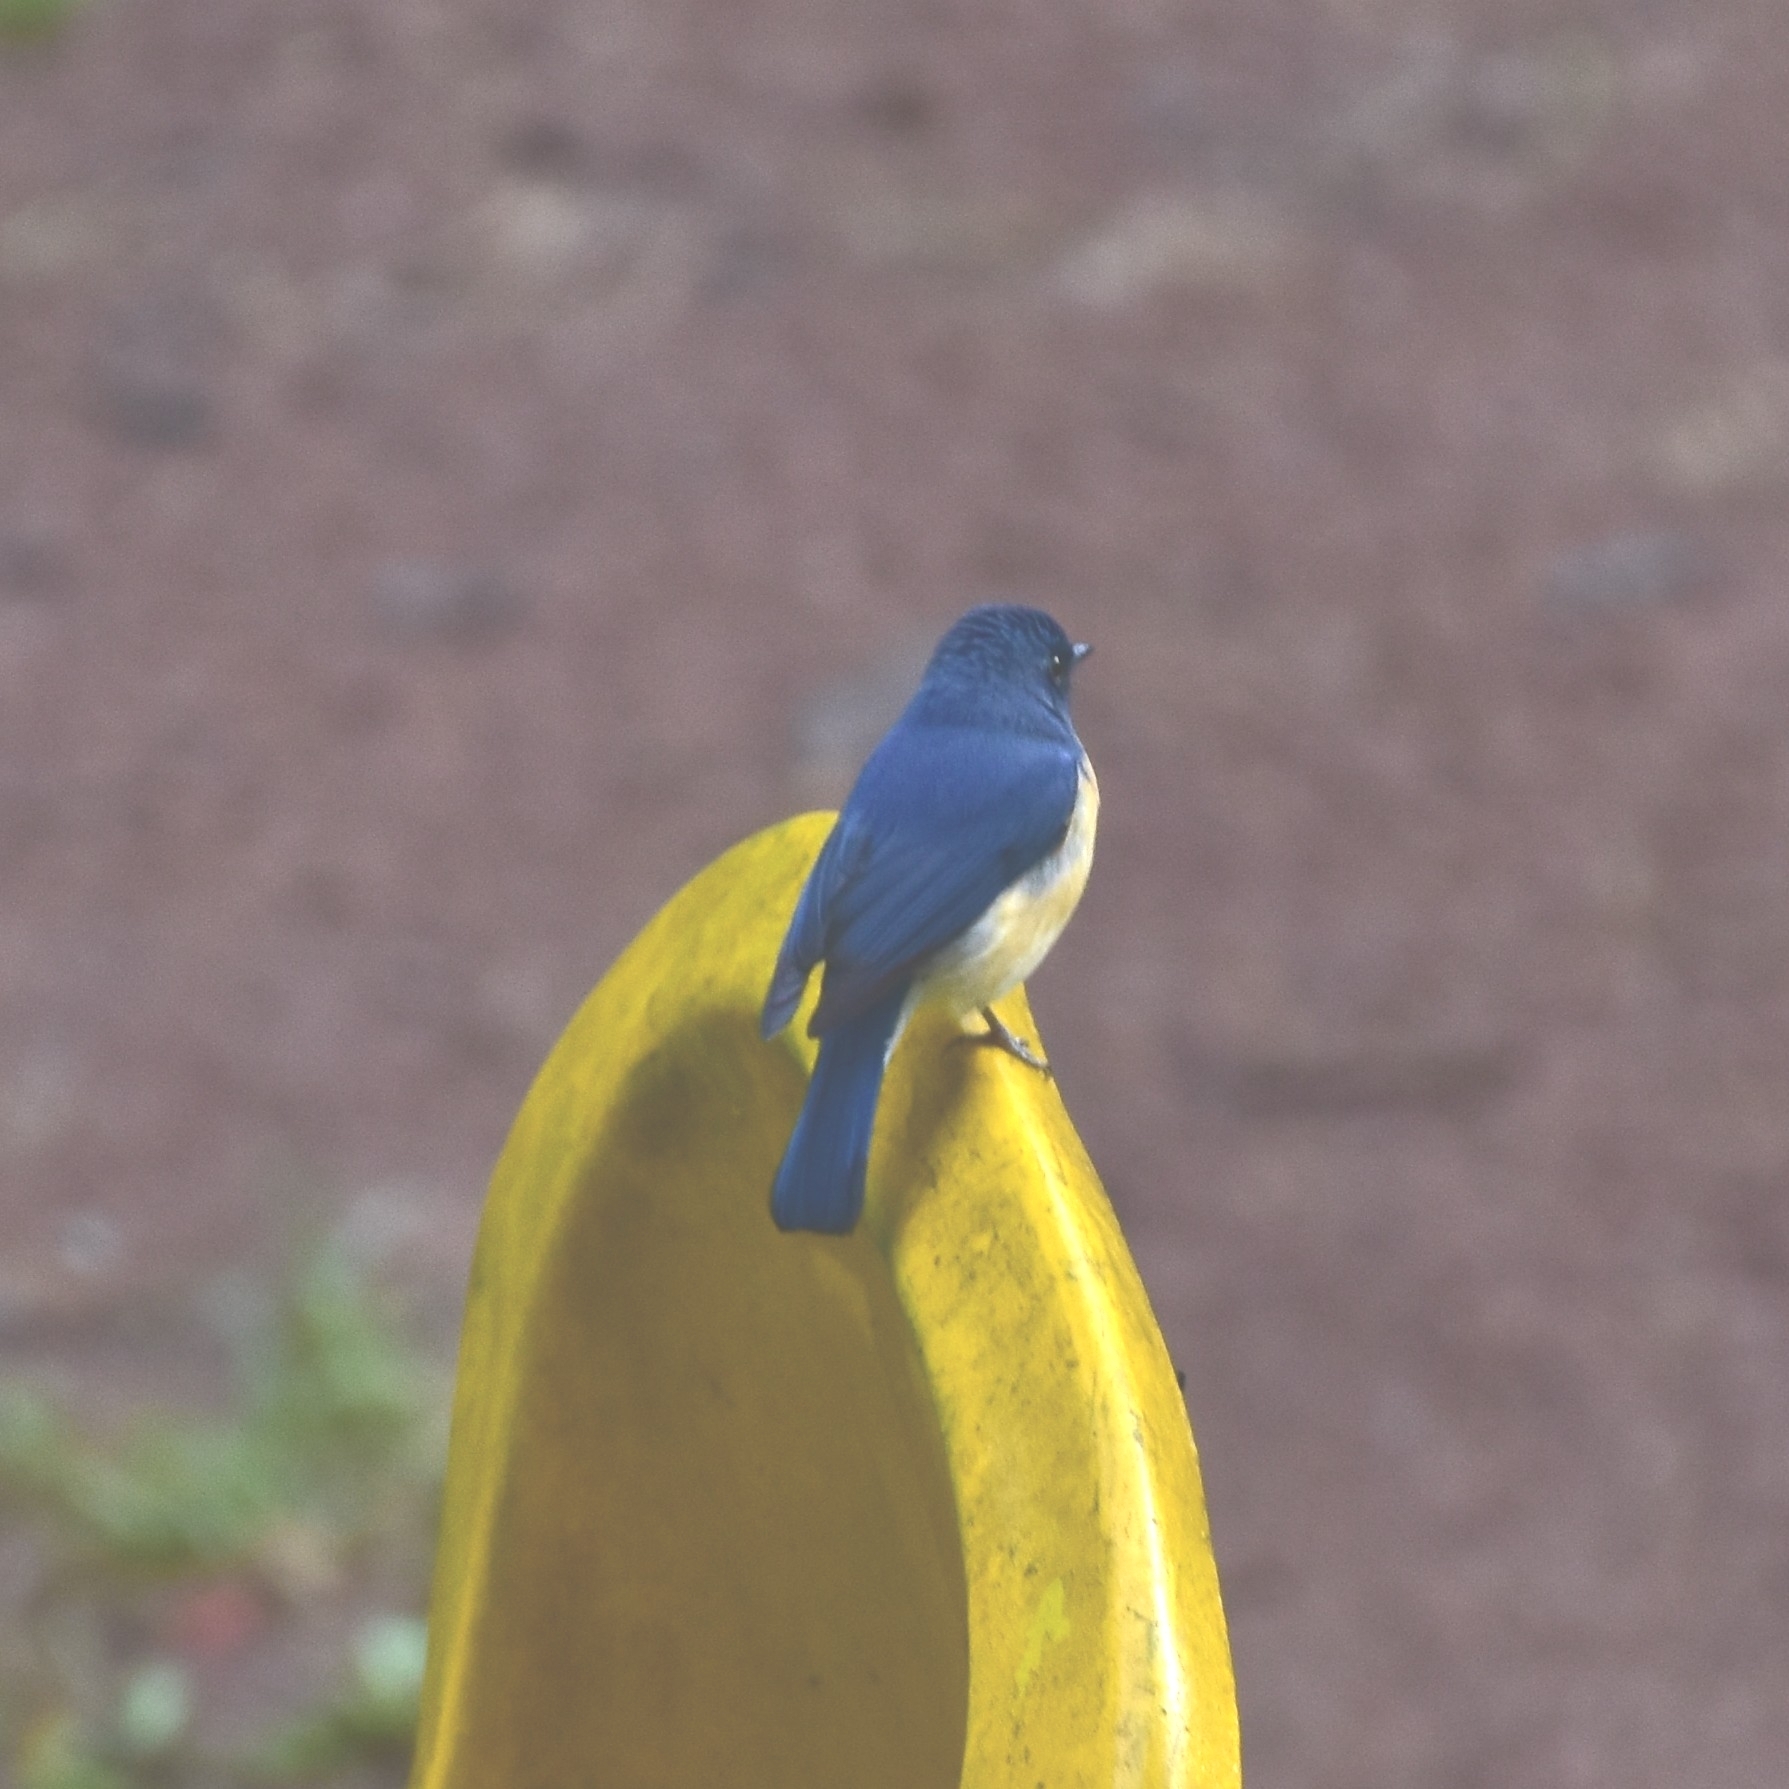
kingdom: Animalia
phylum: Chordata
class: Aves
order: Passeriformes
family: Muscicapidae
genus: Cyornis
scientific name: Cyornis tickelliae
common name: Tickell's blue flycatcher
